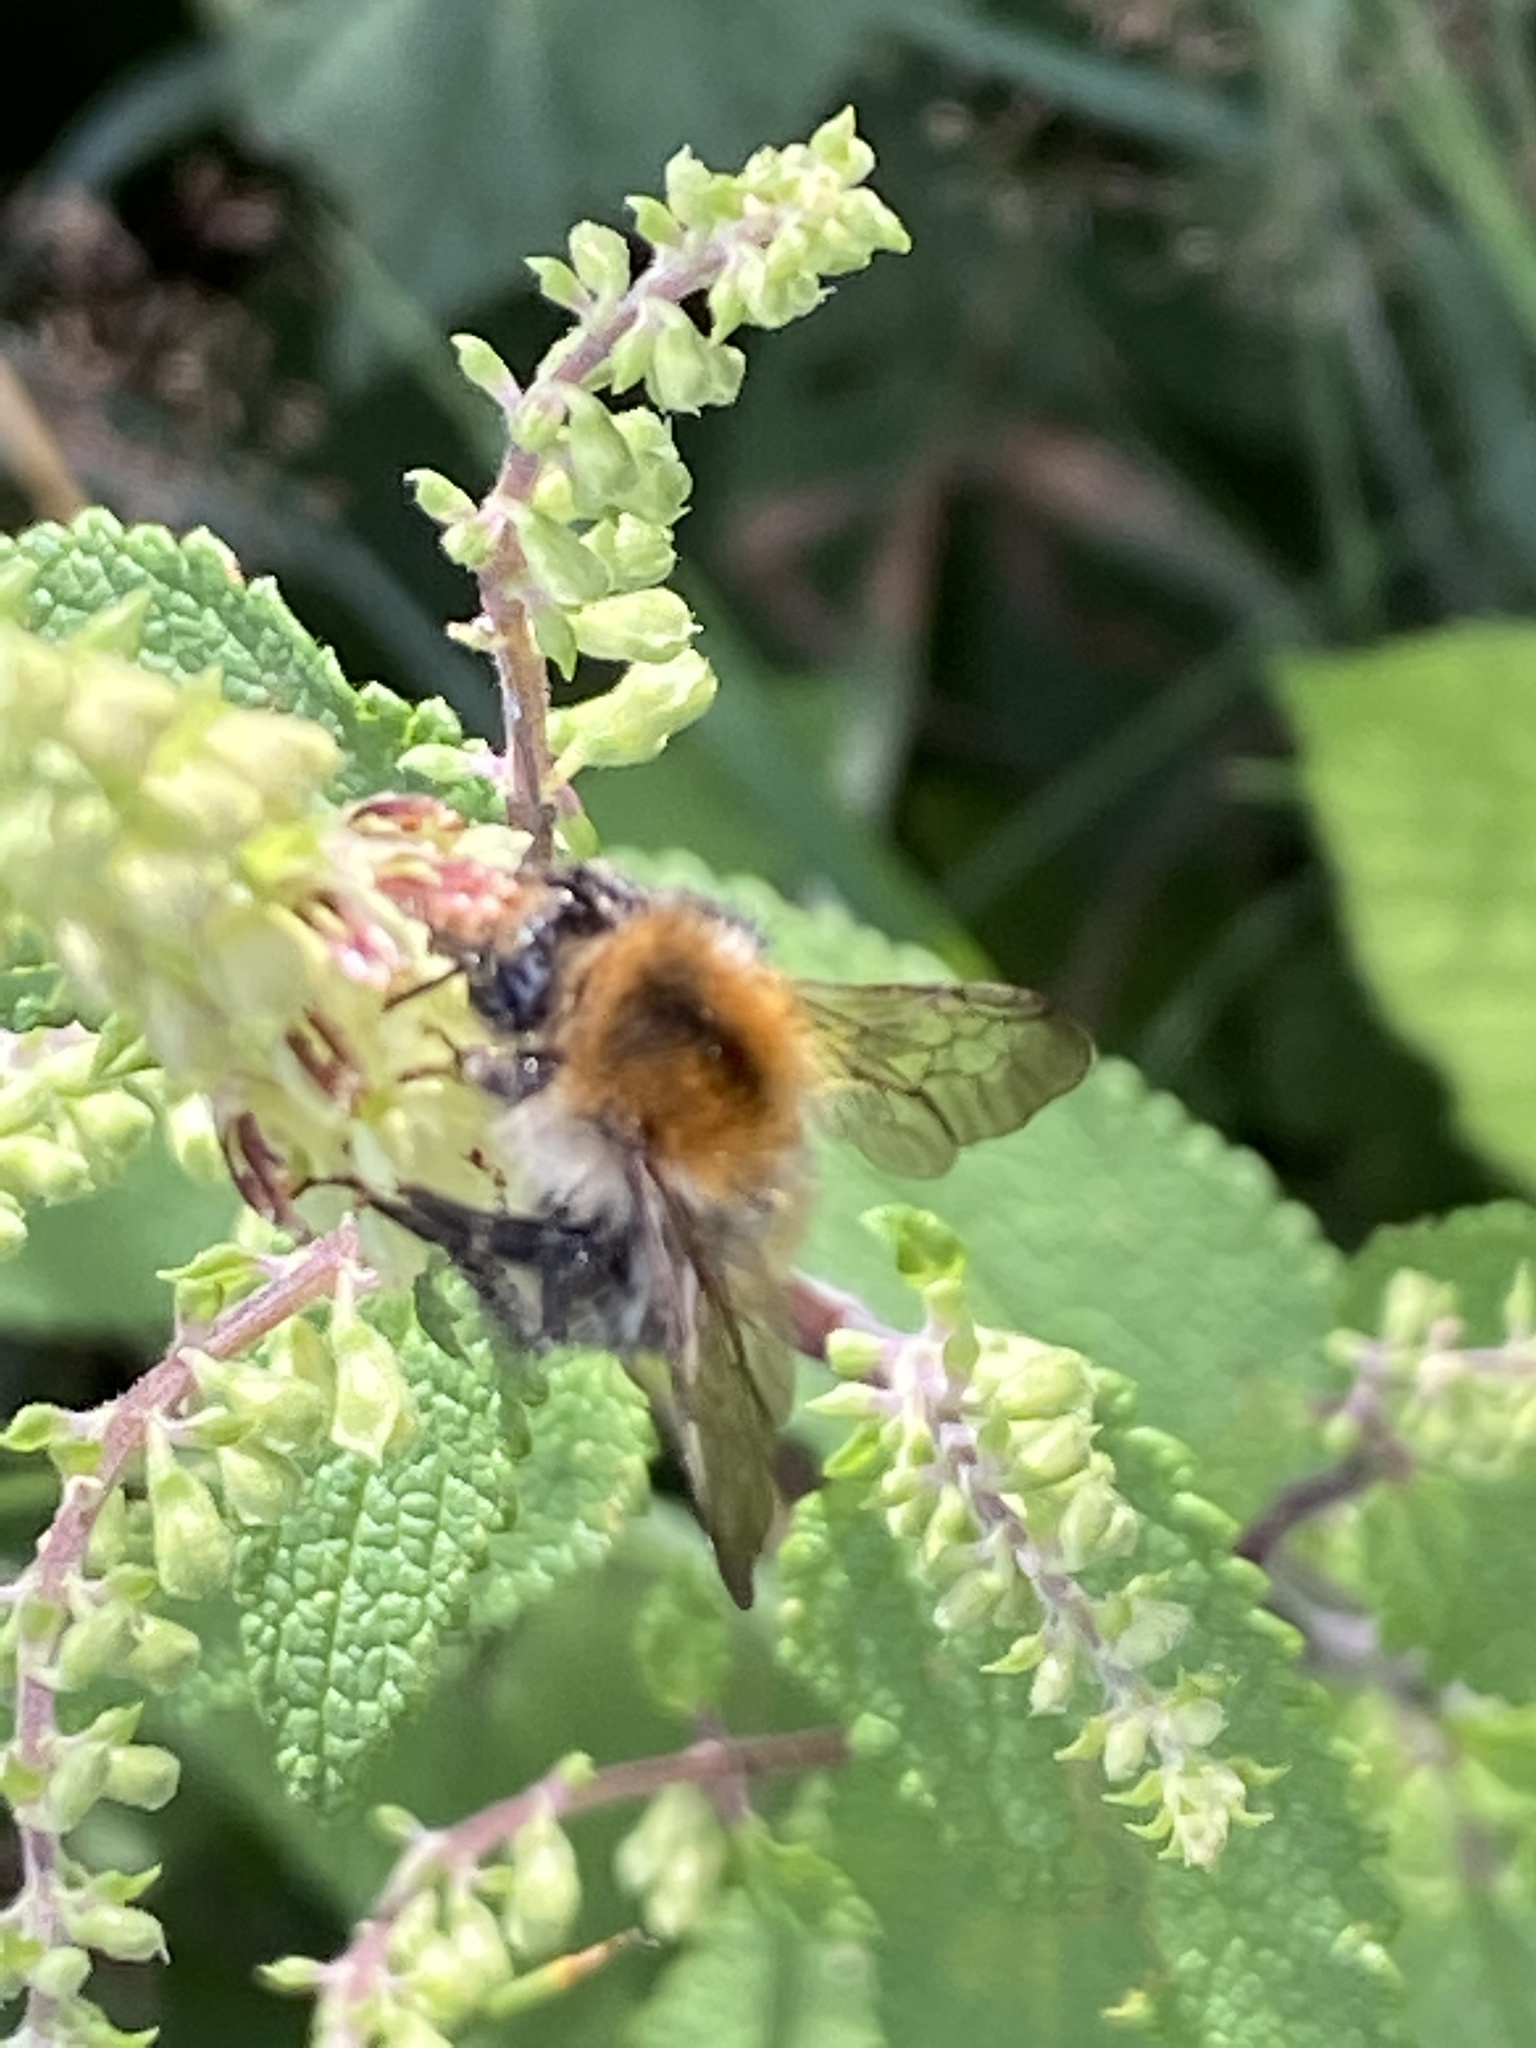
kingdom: Animalia
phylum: Arthropoda
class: Insecta
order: Hymenoptera
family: Apidae
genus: Bombus
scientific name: Bombus pascuorum
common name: Common carder bee
